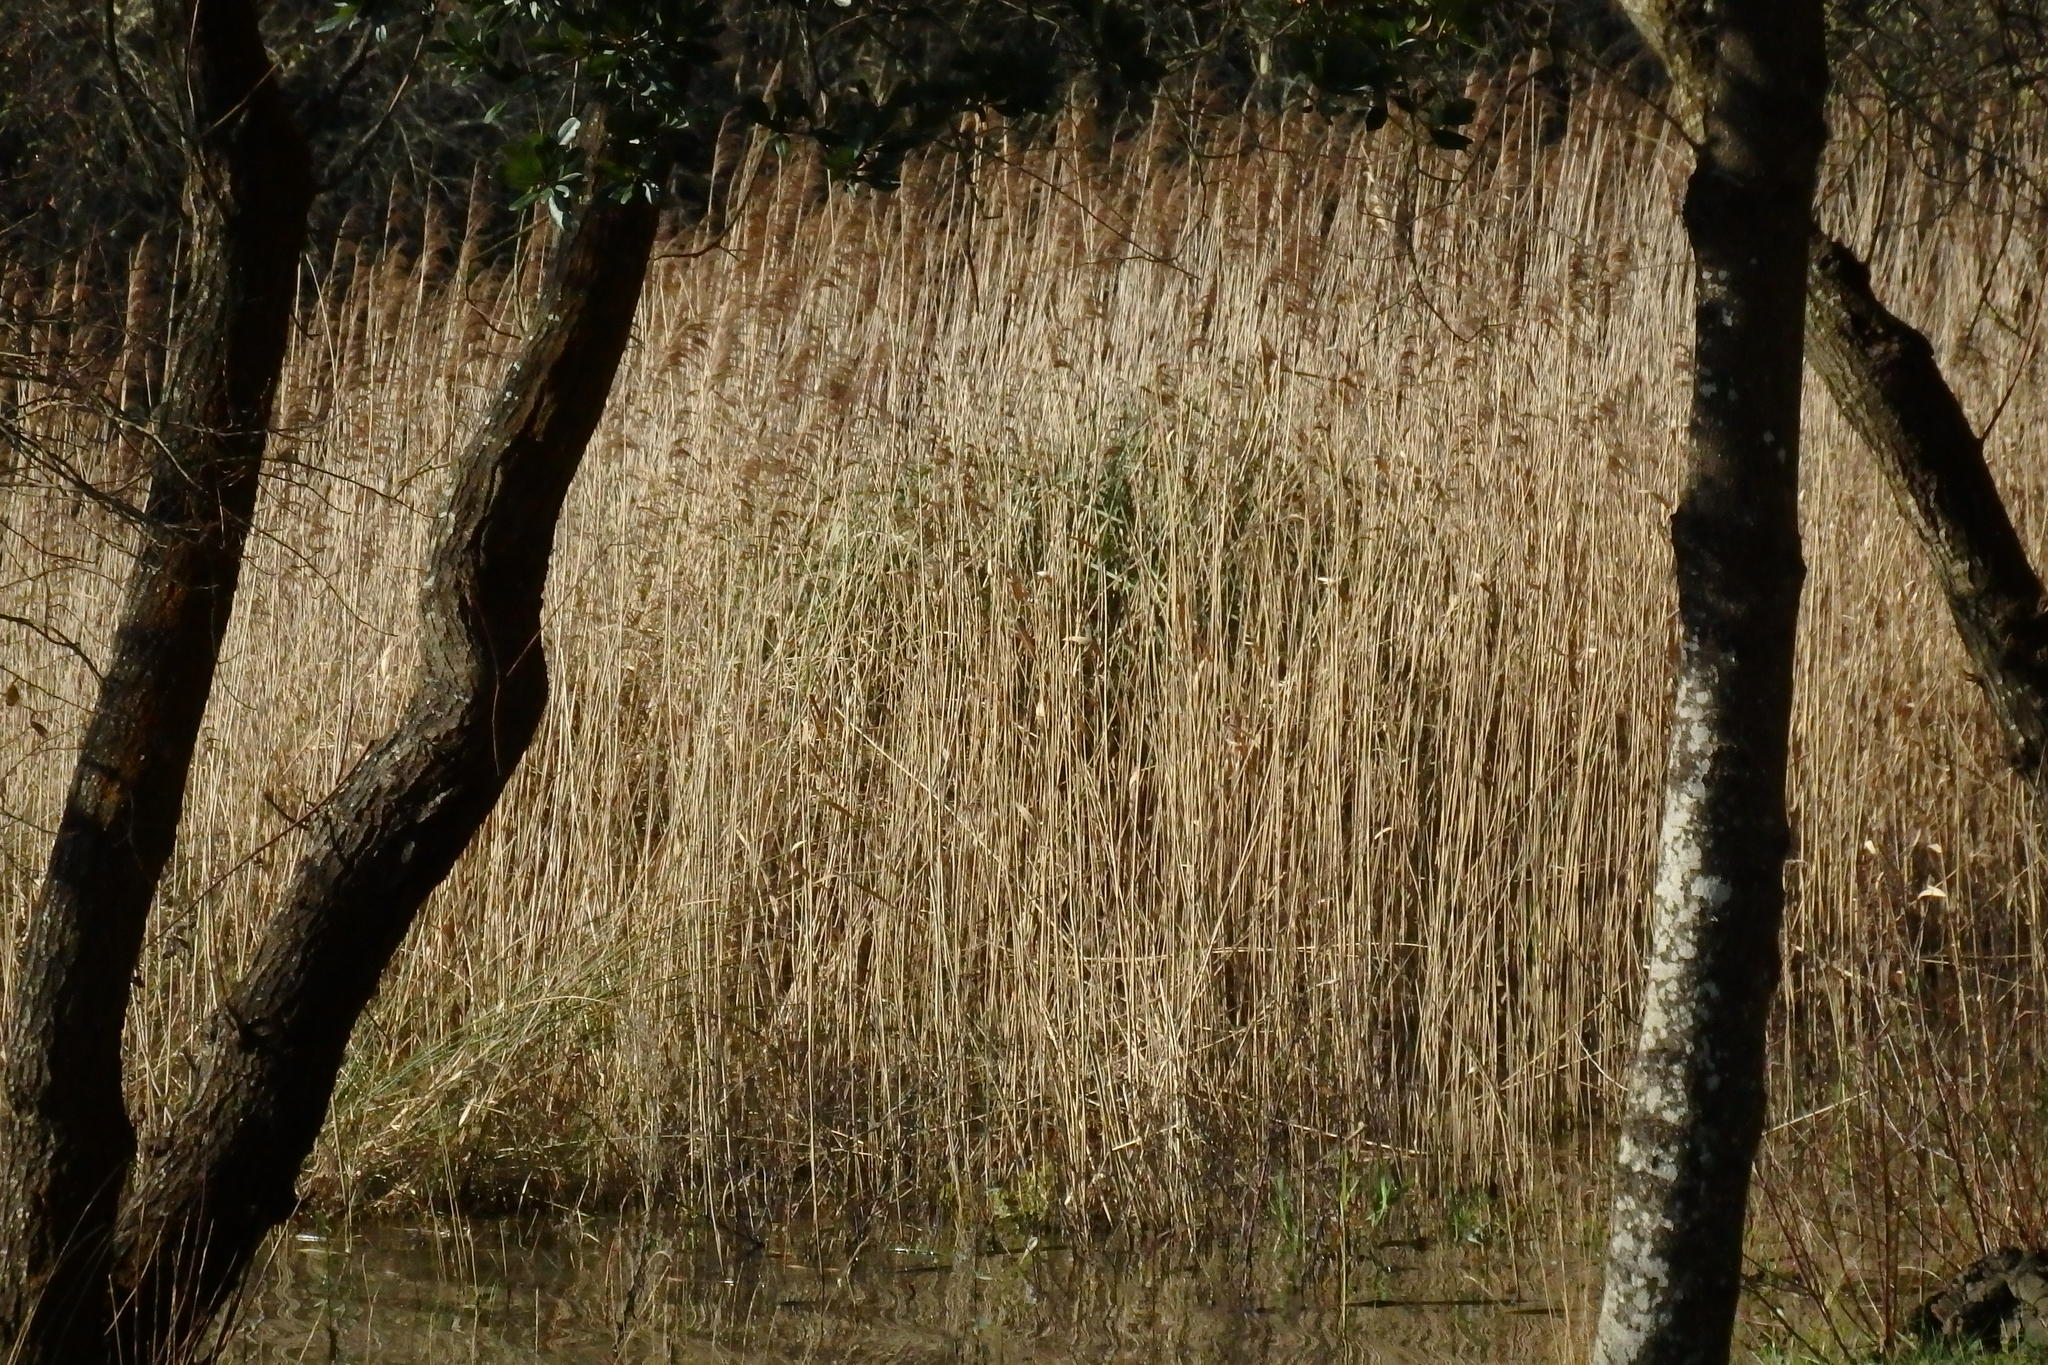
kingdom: Plantae
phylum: Tracheophyta
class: Liliopsida
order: Poales
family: Poaceae
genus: Phragmites
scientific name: Phragmites australis
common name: Common reed
